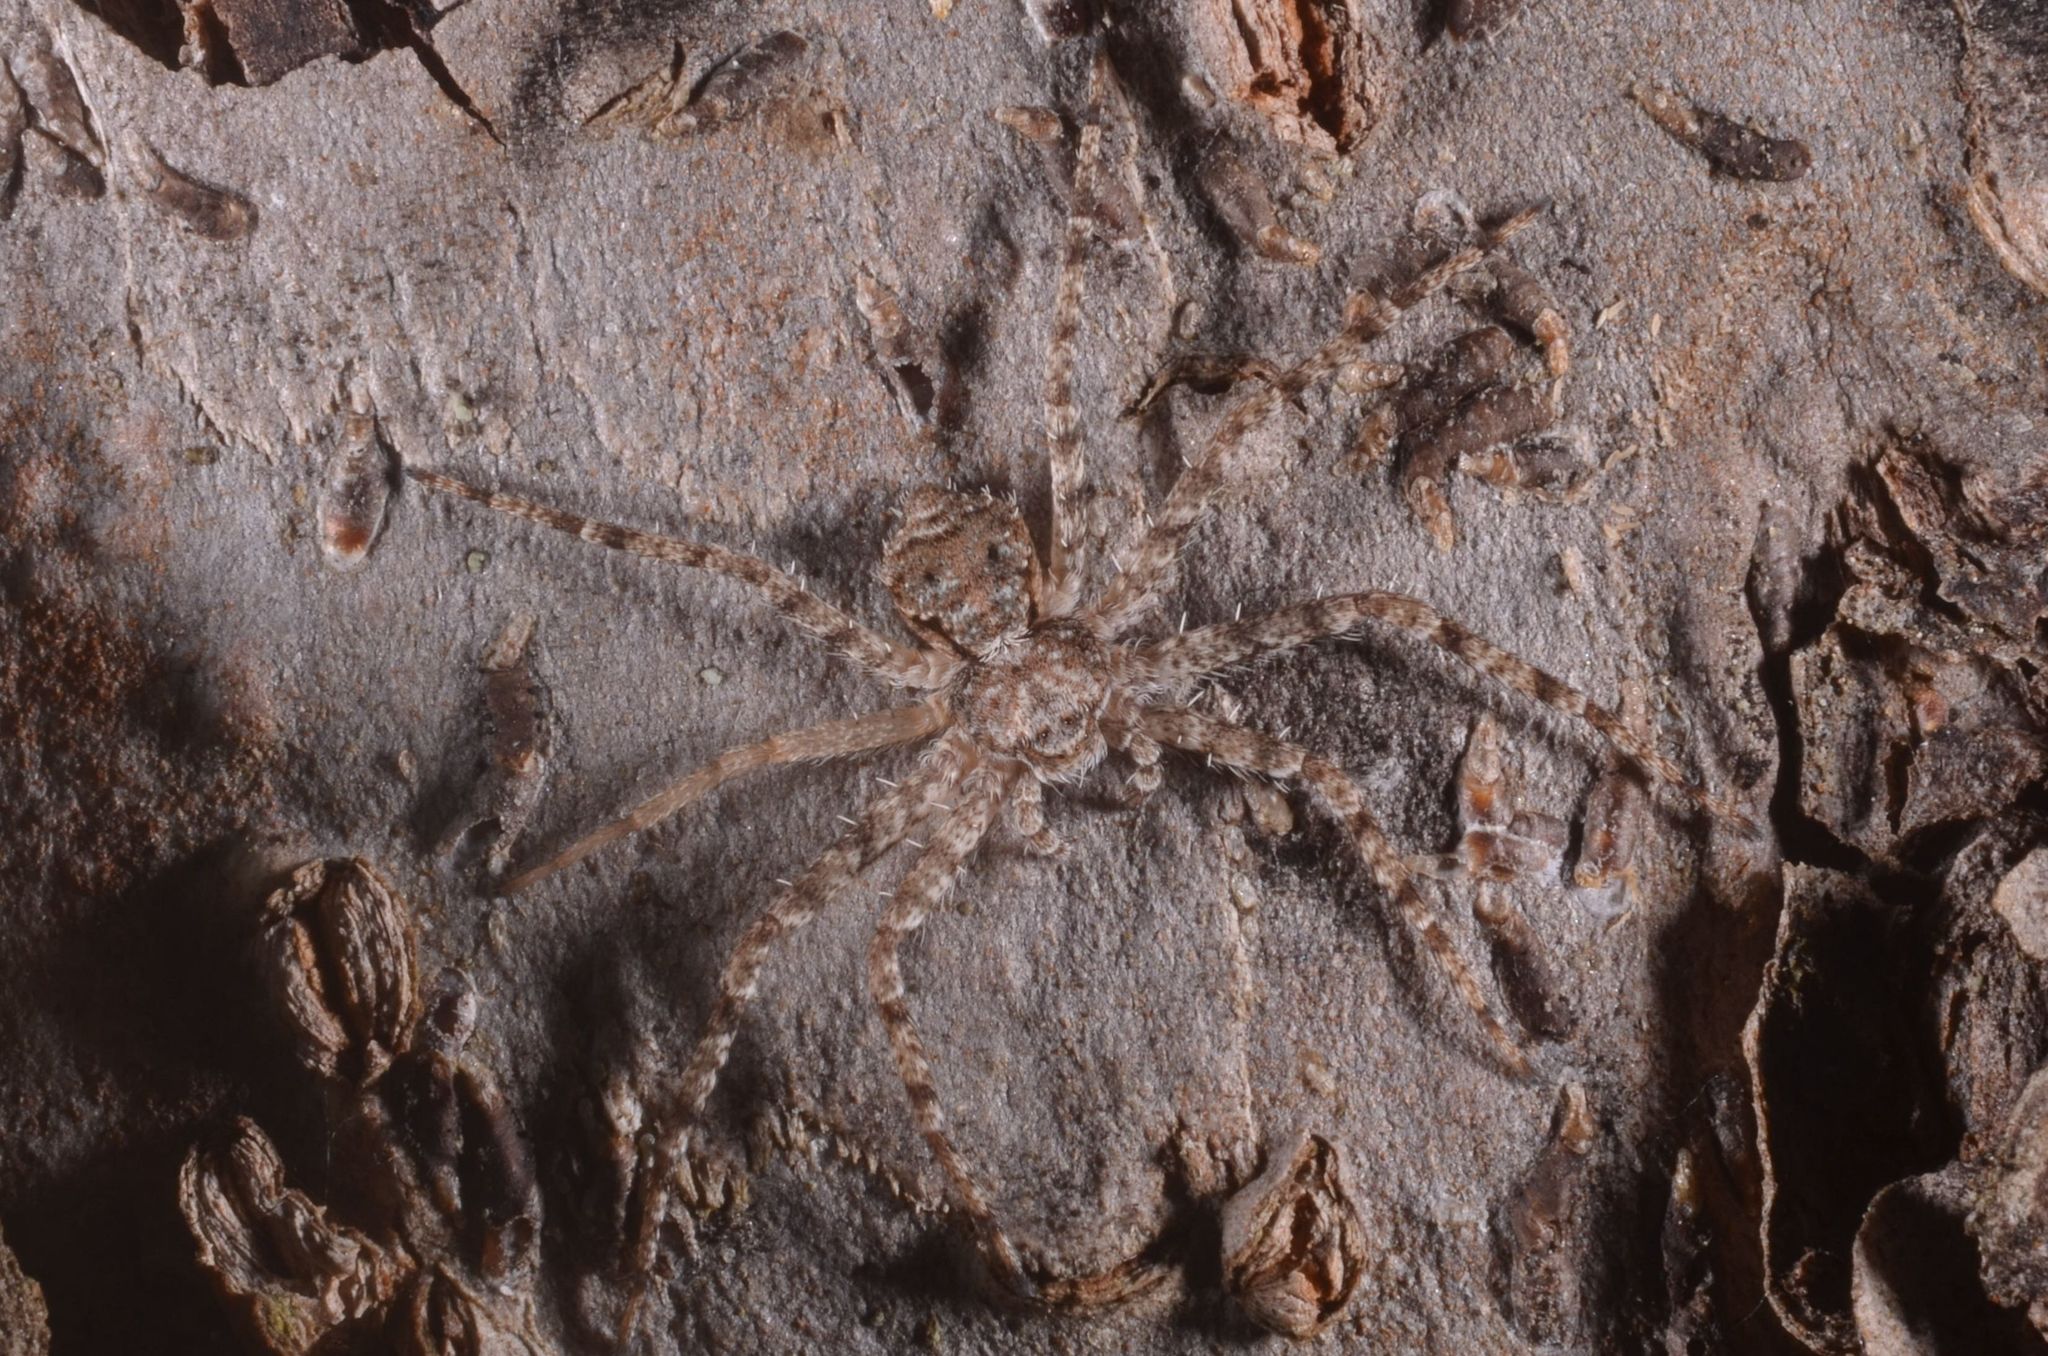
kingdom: Animalia
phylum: Arthropoda
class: Arachnida
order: Araneae
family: Philodromidae
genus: Philodromus
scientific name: Philodromus poecilus
